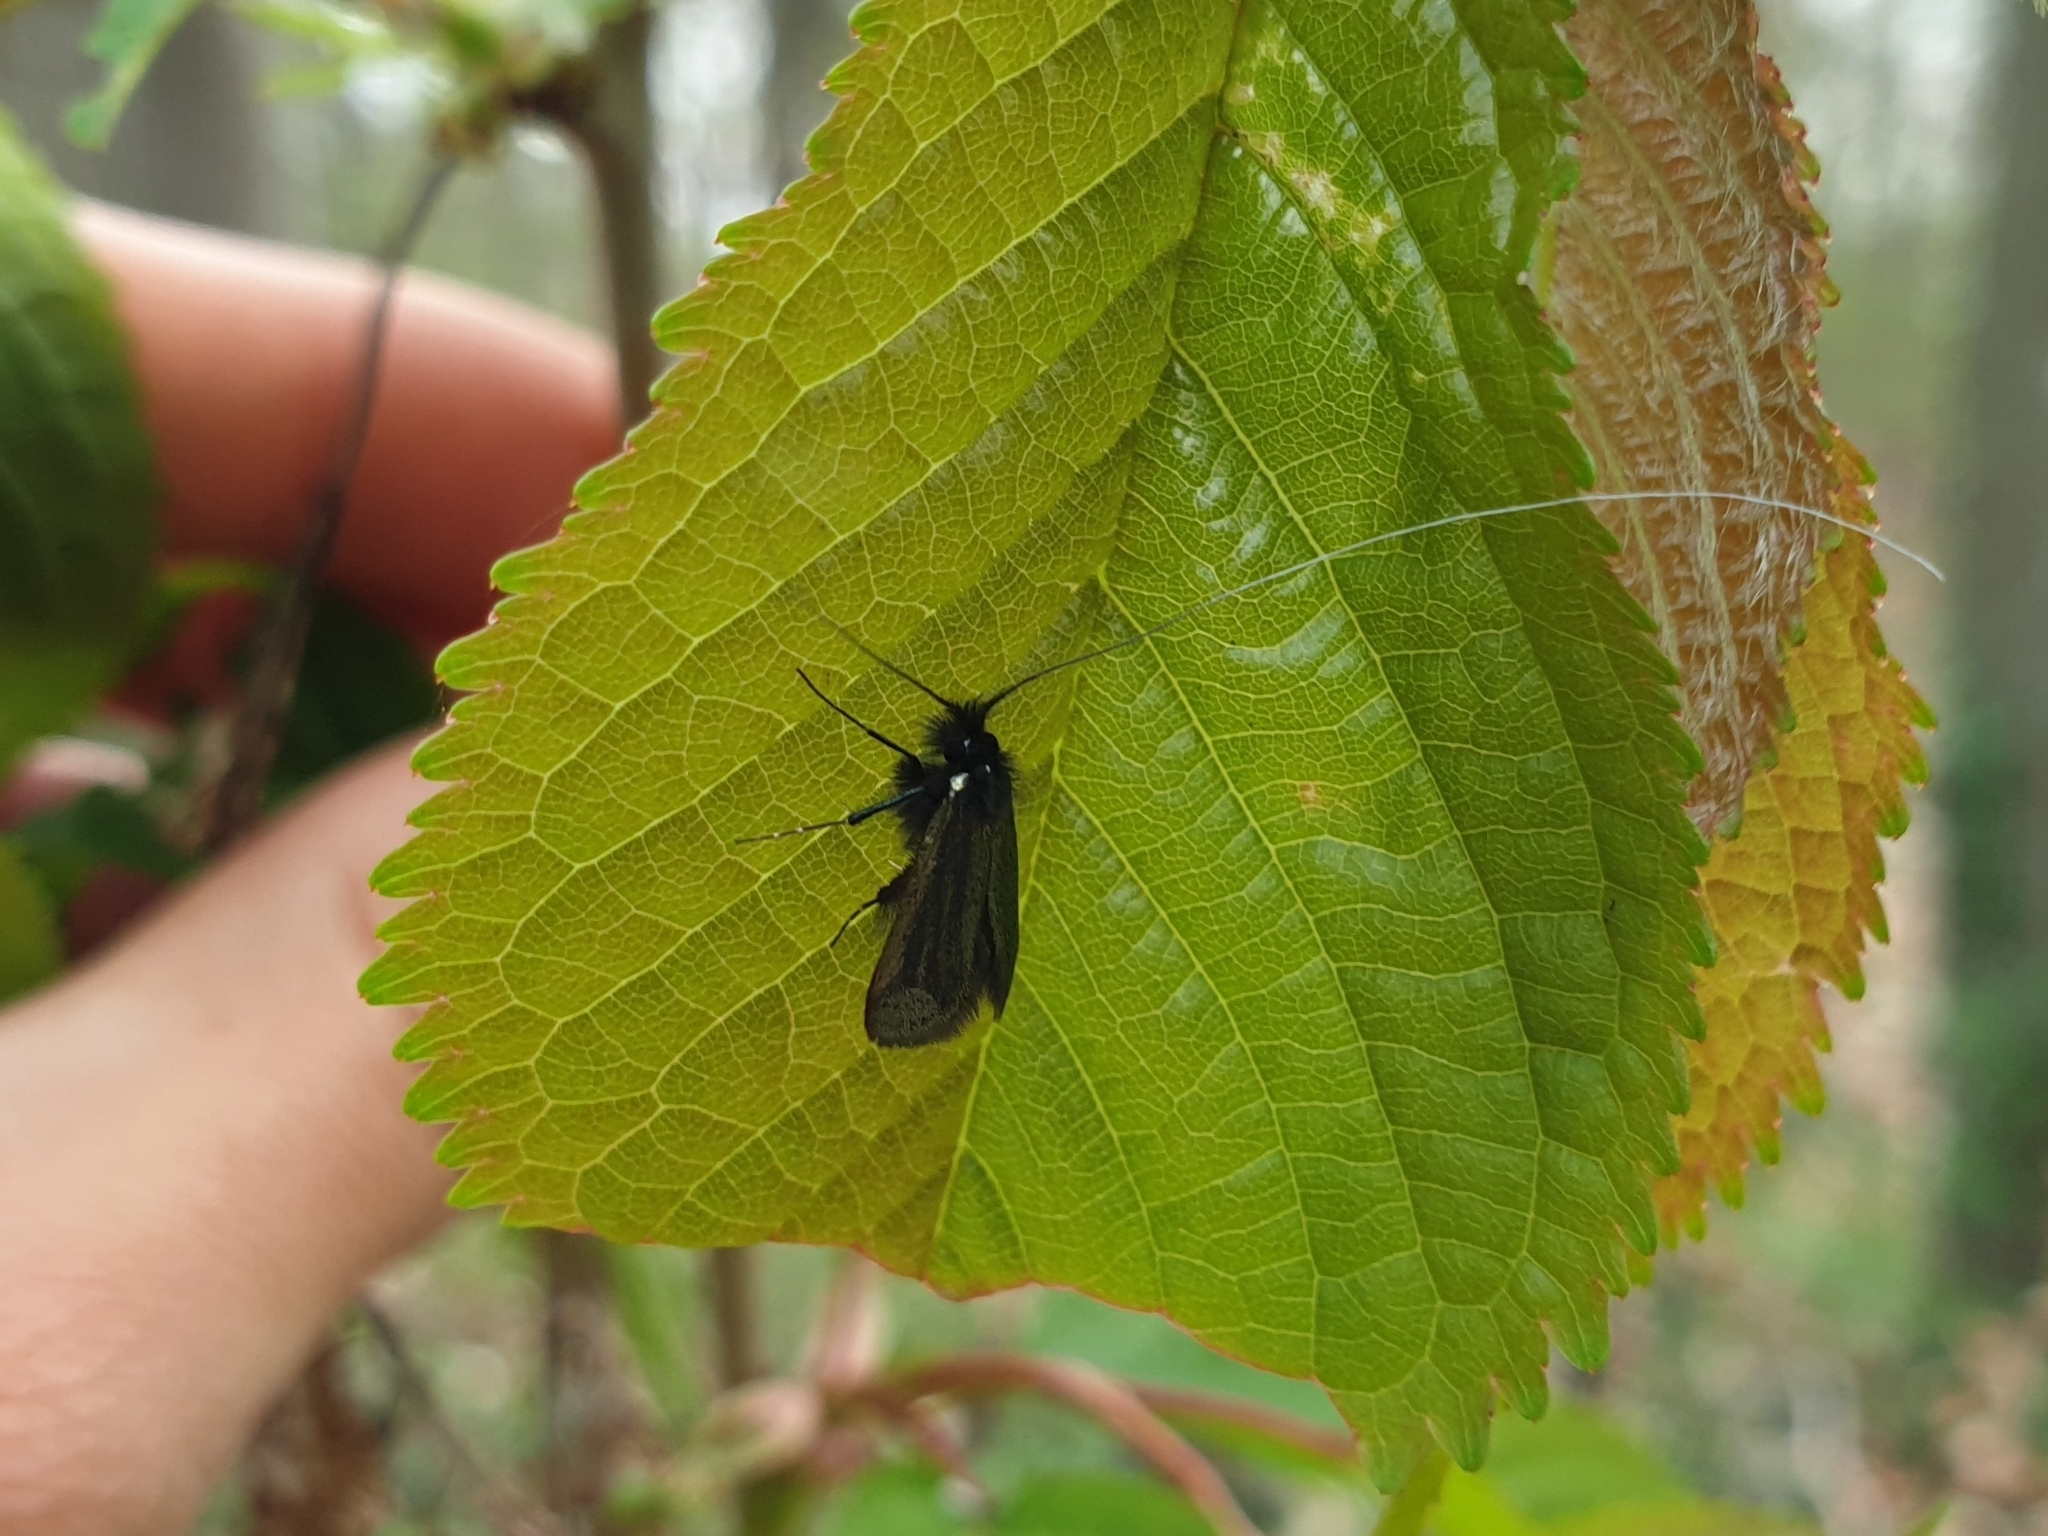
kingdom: Animalia
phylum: Arthropoda
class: Insecta
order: Lepidoptera
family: Adelidae
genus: Adela
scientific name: Adela viridella
